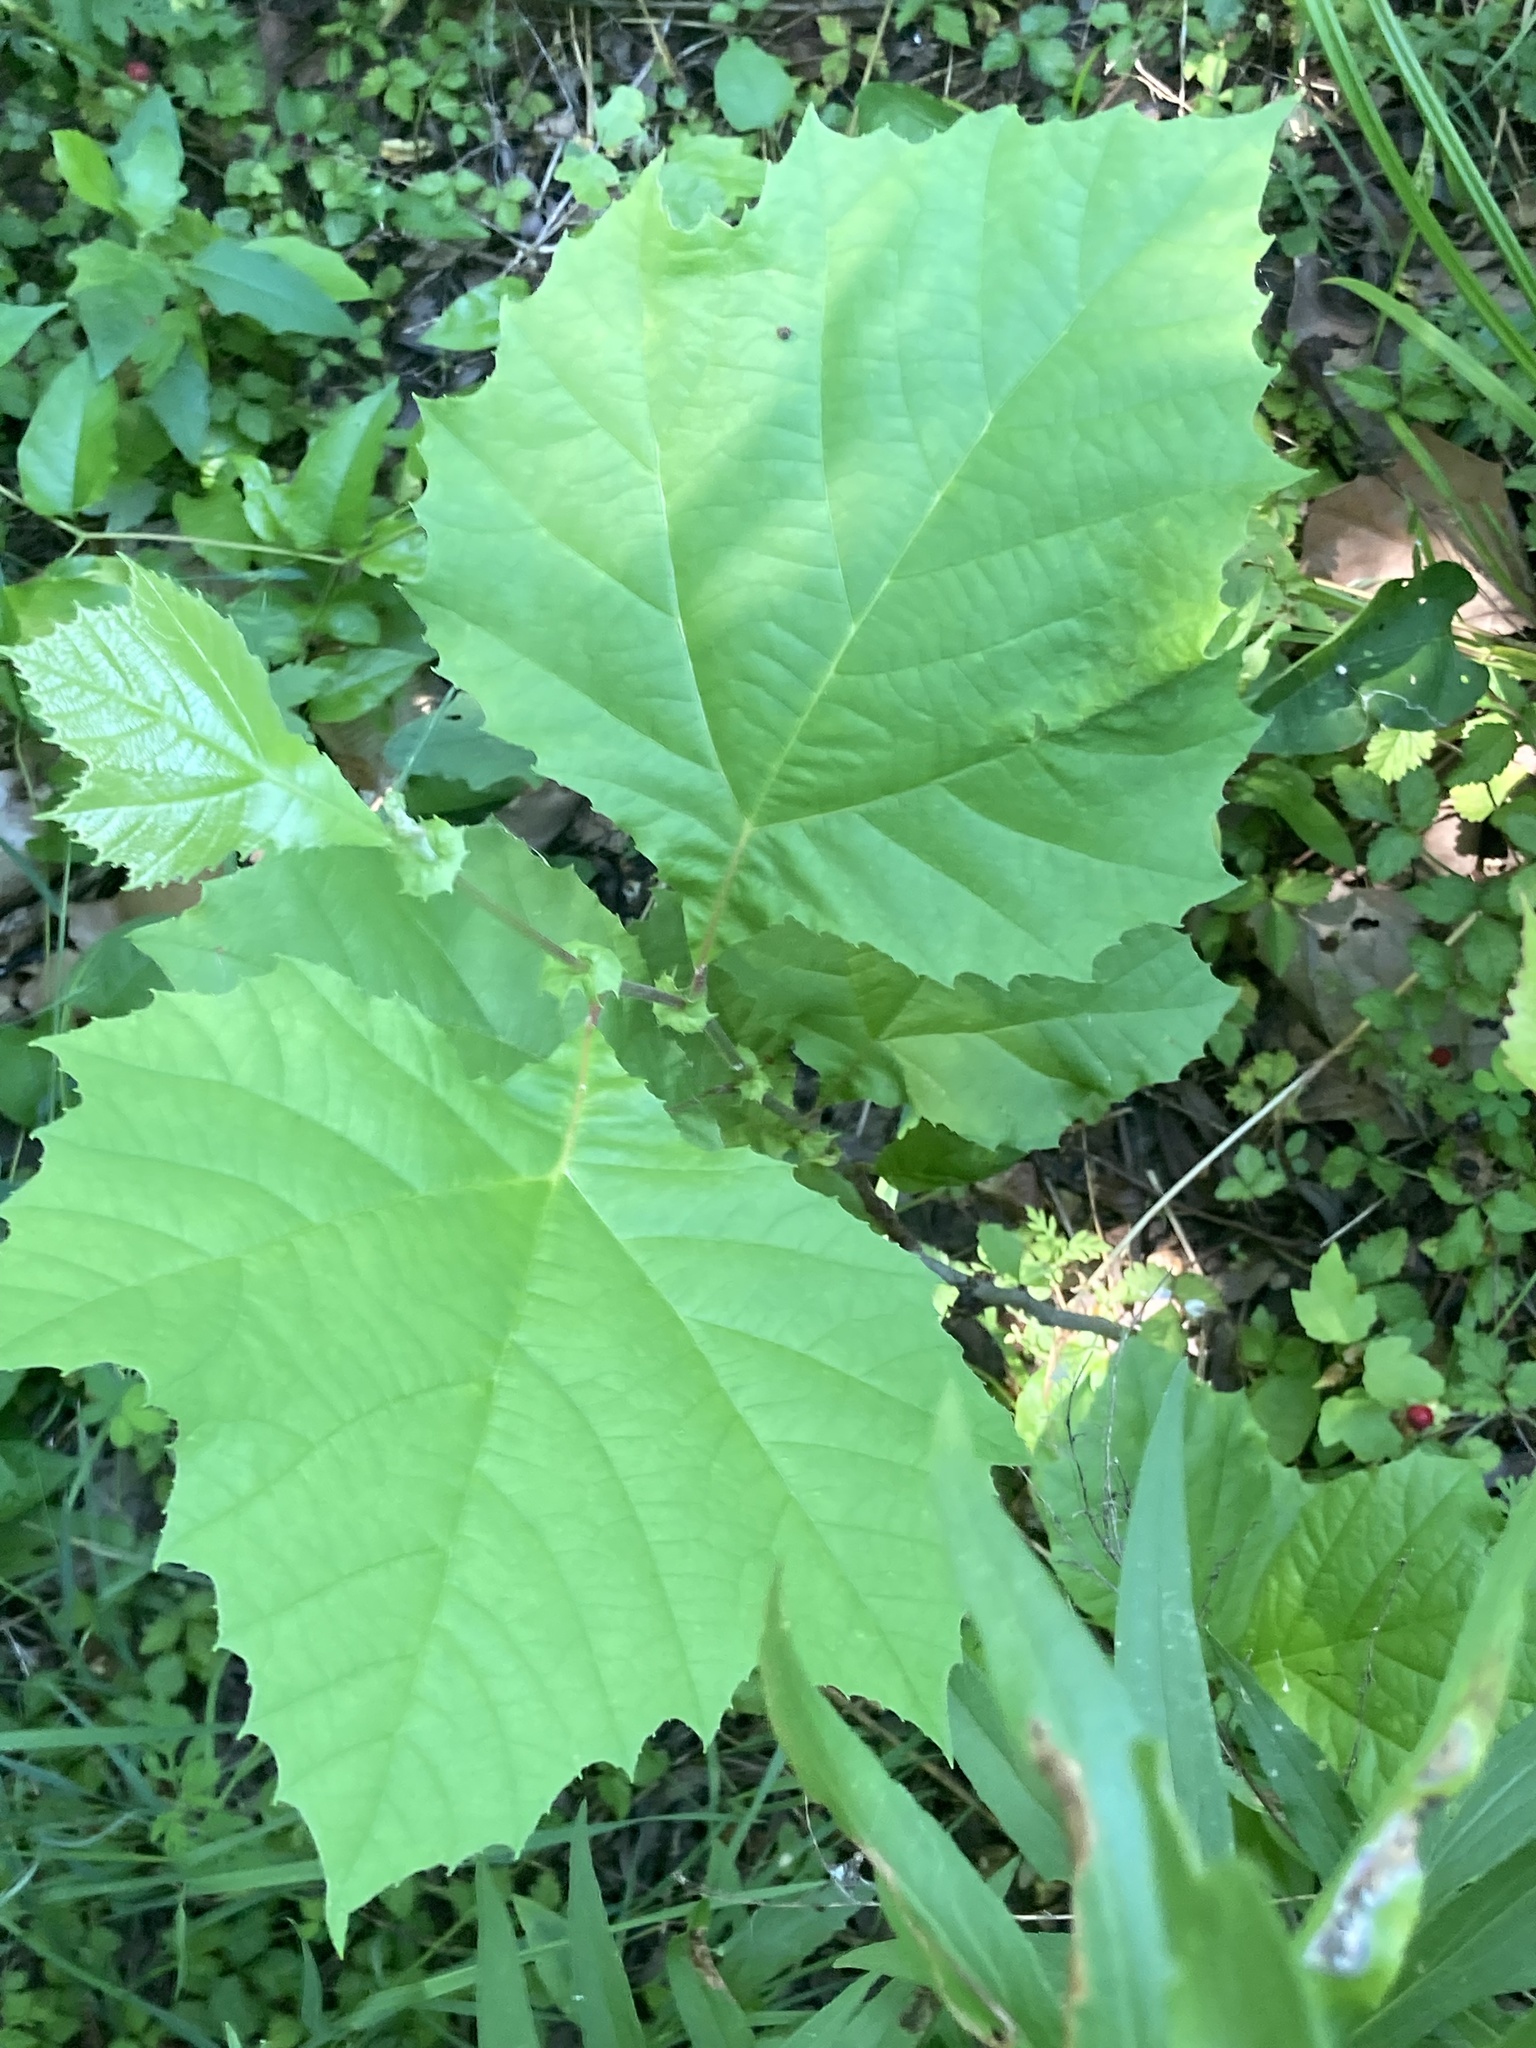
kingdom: Plantae
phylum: Tracheophyta
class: Magnoliopsida
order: Proteales
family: Platanaceae
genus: Platanus
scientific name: Platanus occidentalis
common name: American sycamore
